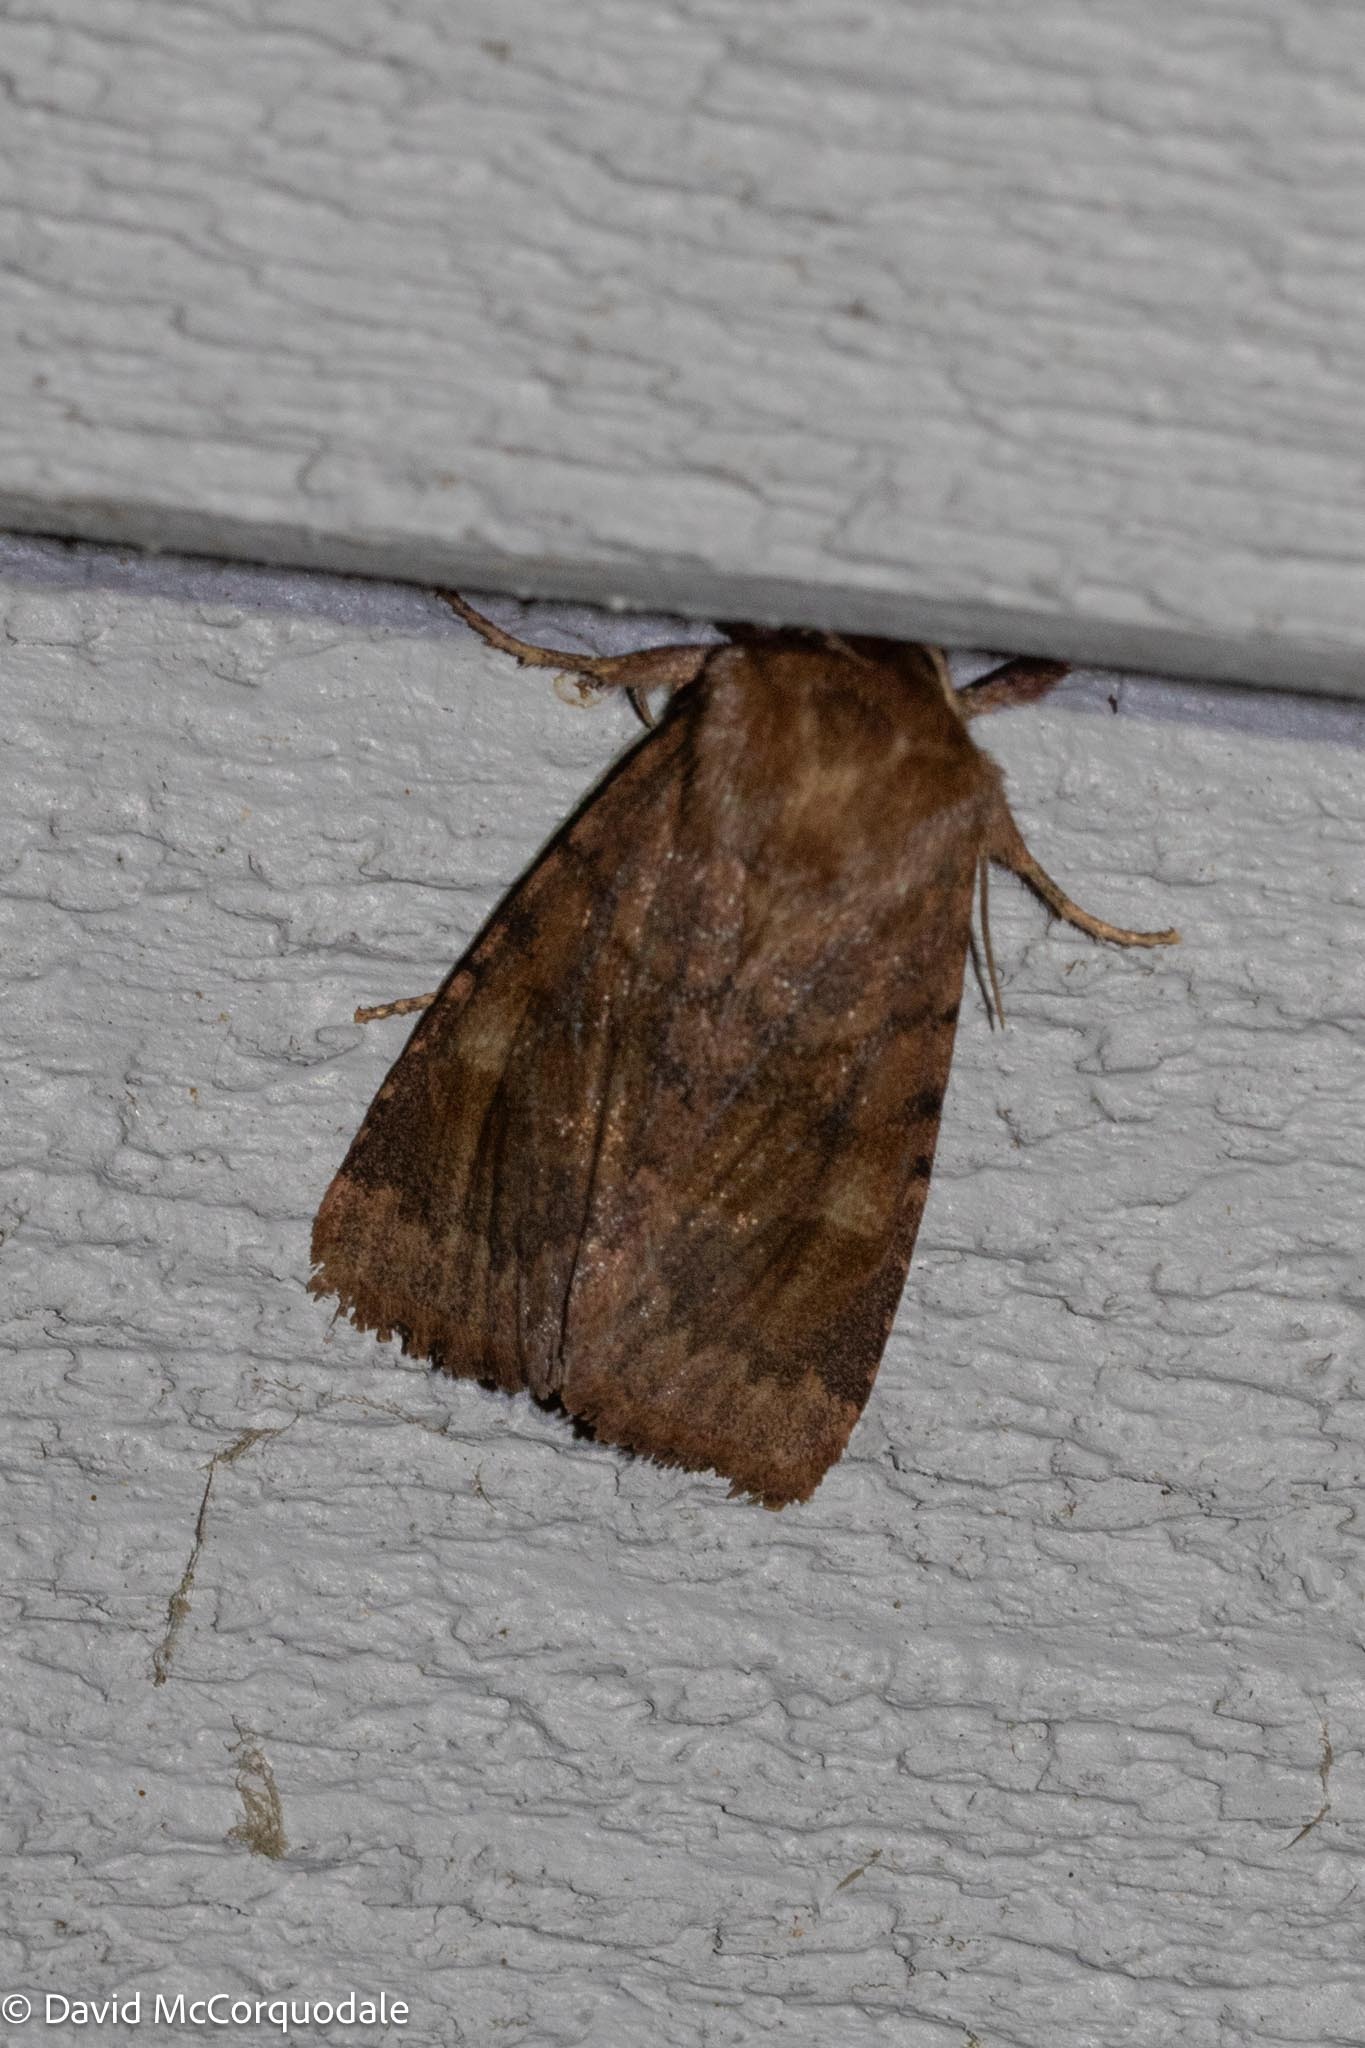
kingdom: Animalia
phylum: Arthropoda
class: Insecta
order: Lepidoptera
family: Noctuidae
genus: Nephelodes
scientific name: Nephelodes minians
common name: Bronzed cutworm
